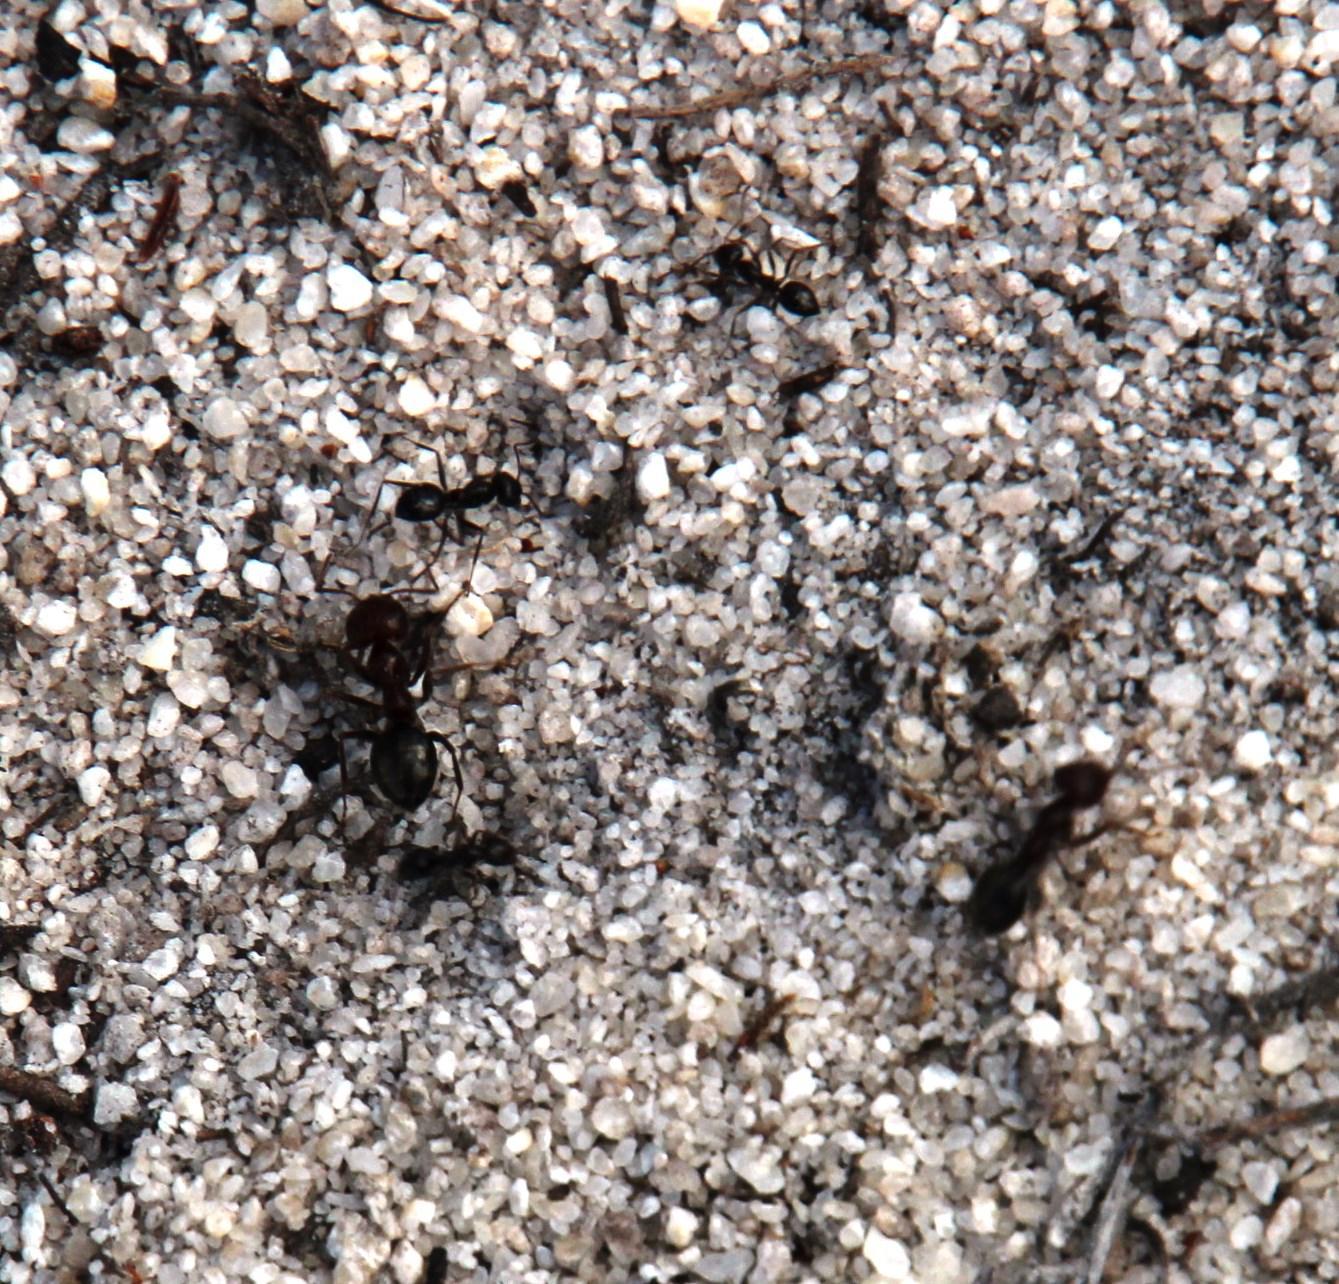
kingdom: Animalia
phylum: Arthropoda
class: Insecta
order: Hymenoptera
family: Formicidae
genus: Anoplolepis
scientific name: Anoplolepis steingroeveri
